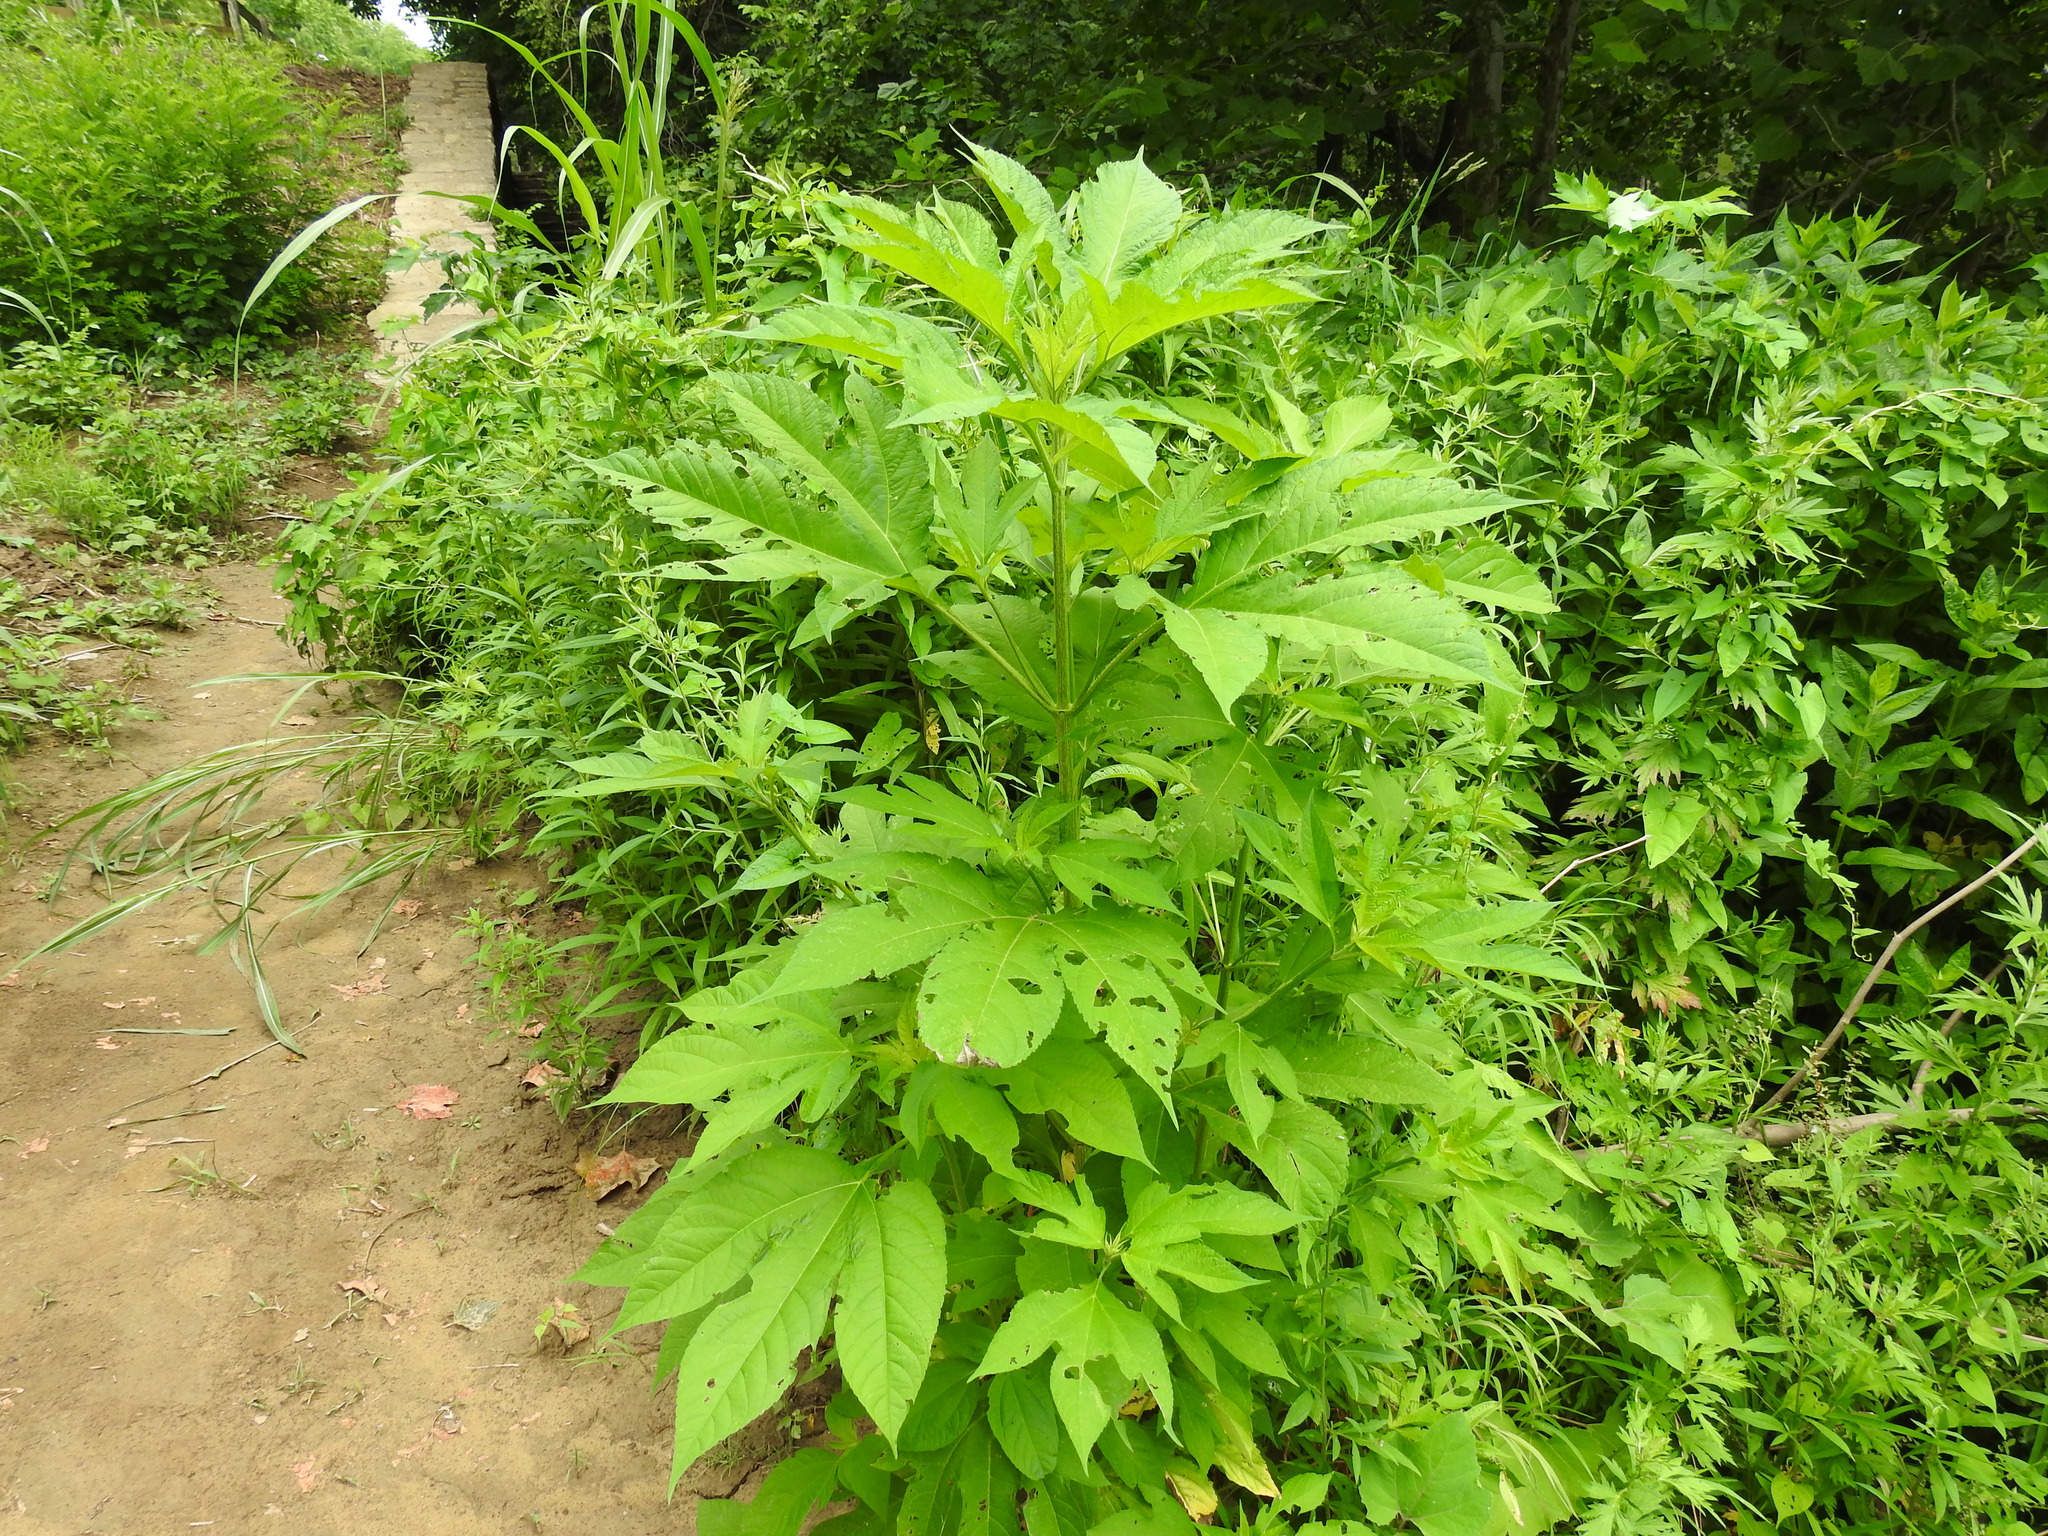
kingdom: Plantae
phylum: Tracheophyta
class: Magnoliopsida
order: Asterales
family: Asteraceae
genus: Ambrosia
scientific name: Ambrosia trifida
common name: Giant ragweed
